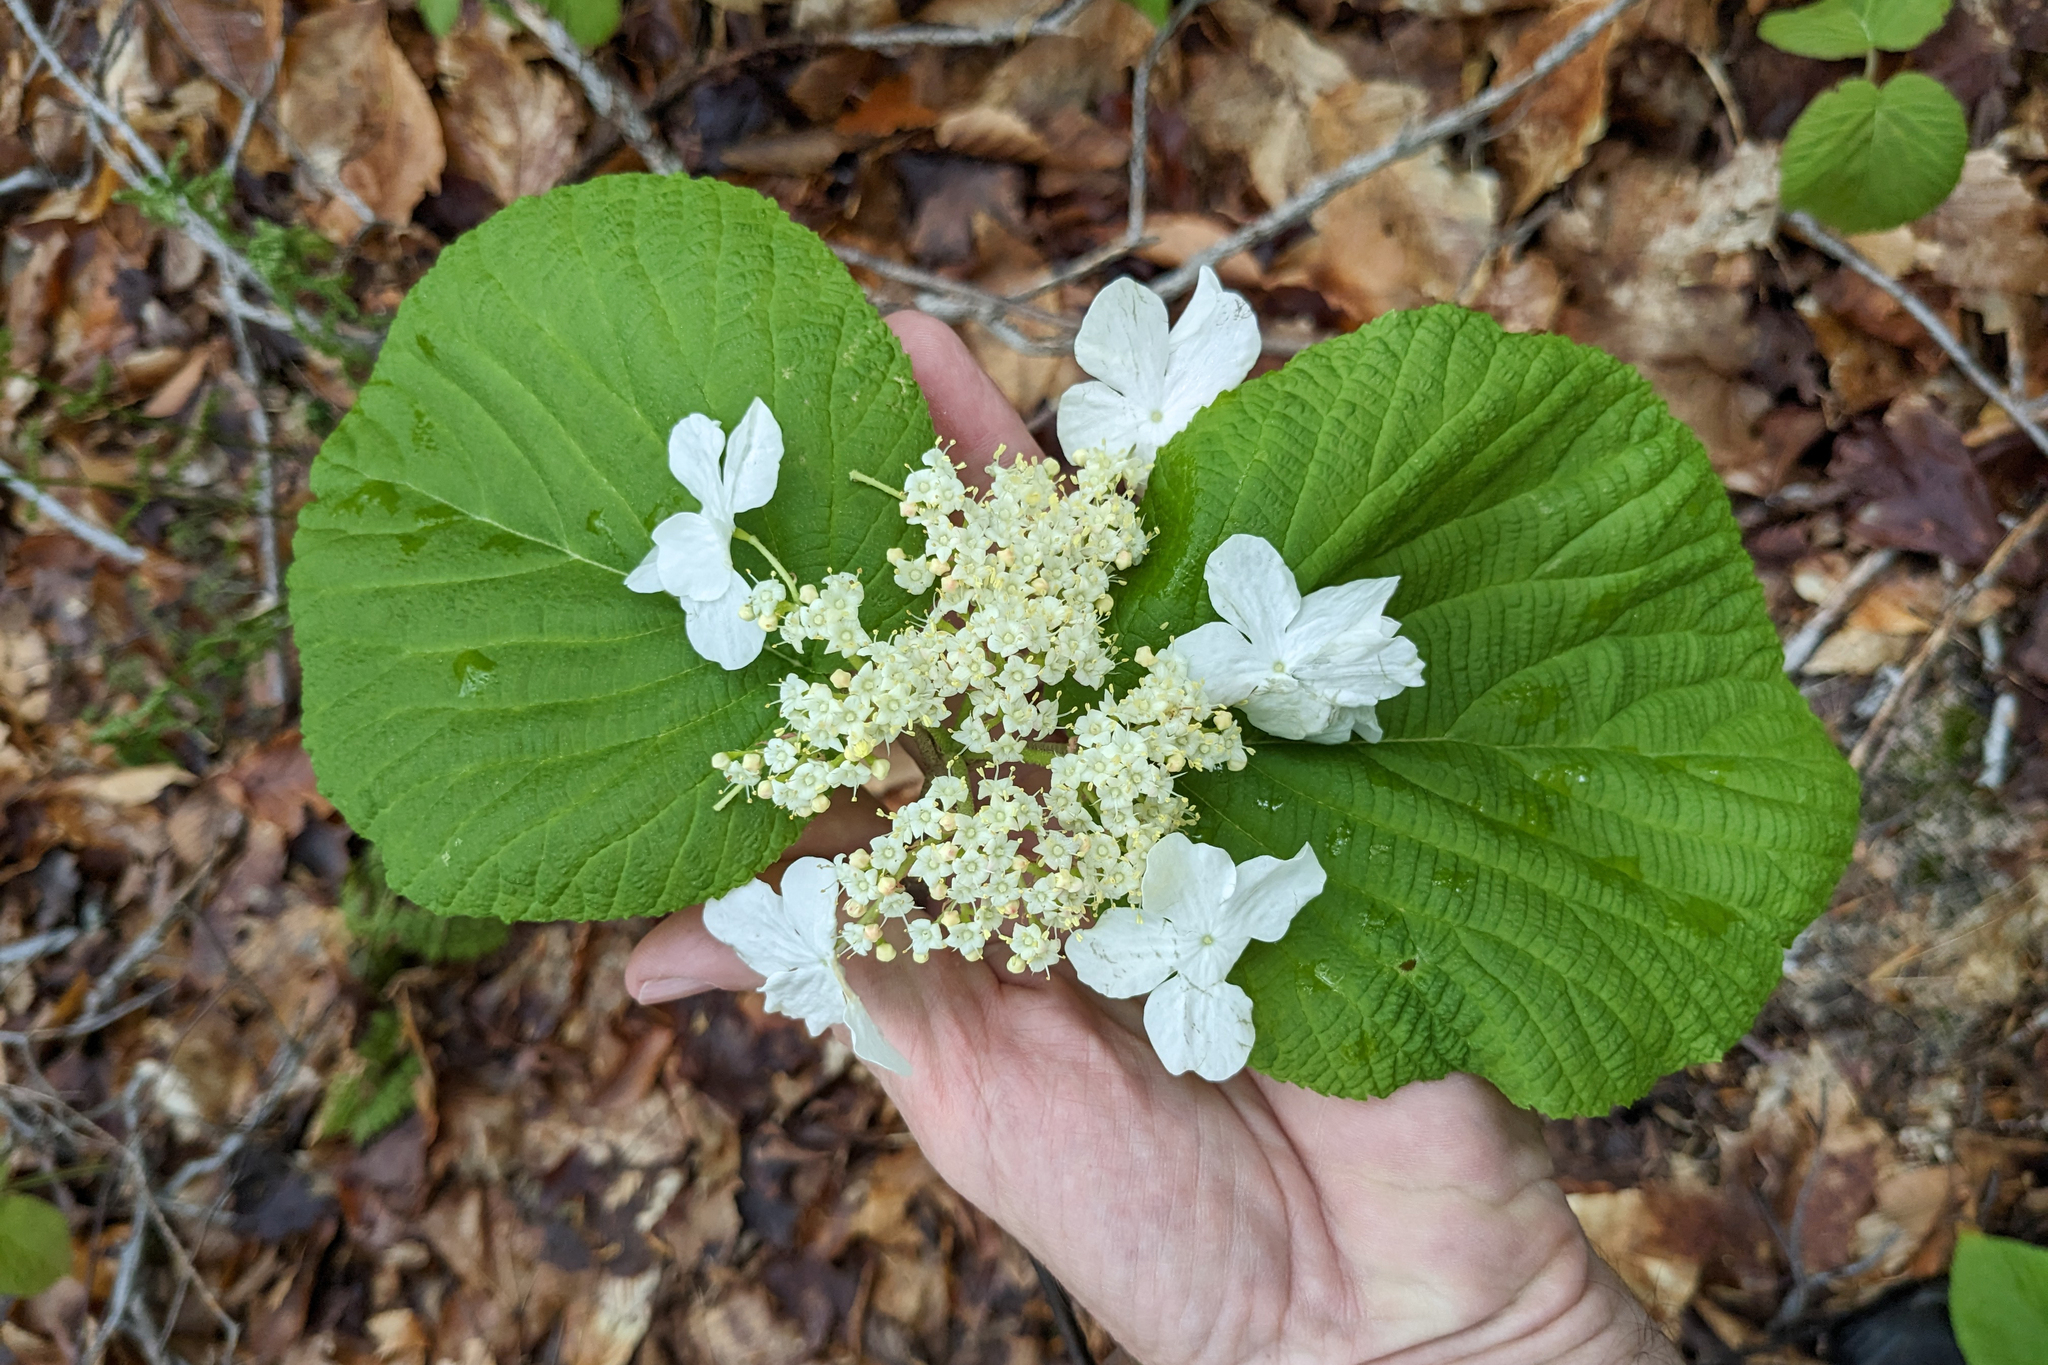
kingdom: Plantae
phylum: Tracheophyta
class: Magnoliopsida
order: Dipsacales
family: Viburnaceae
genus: Viburnum
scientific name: Viburnum lantanoides
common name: Hobblebush
